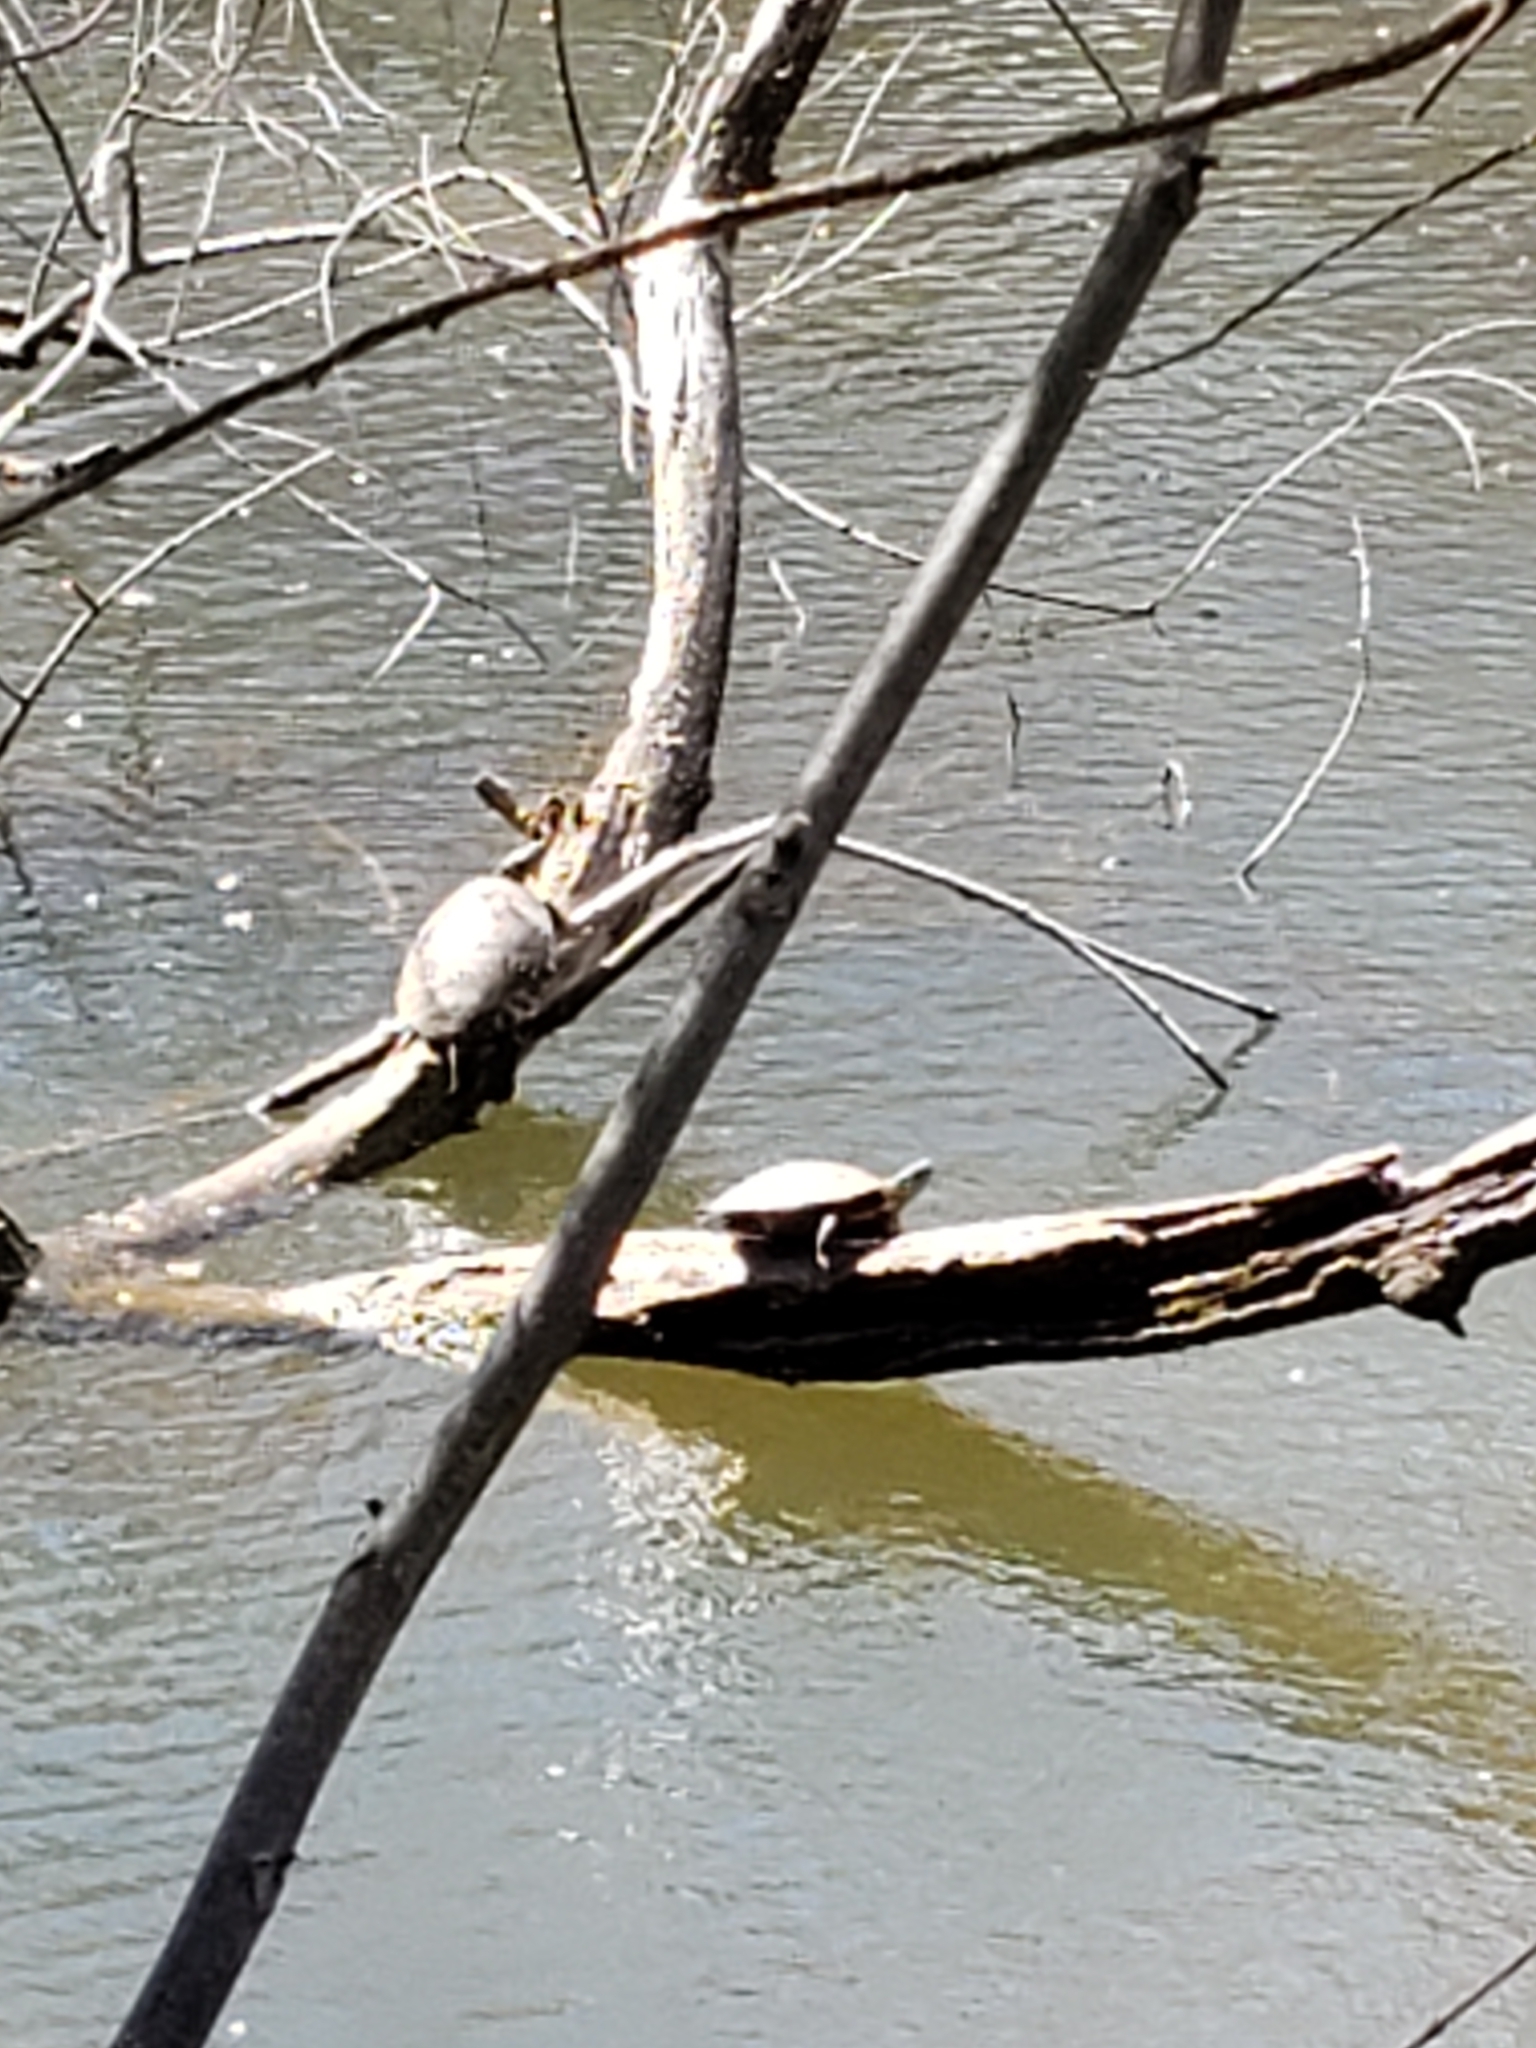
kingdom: Animalia
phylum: Chordata
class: Testudines
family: Emydidae
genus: Chrysemys
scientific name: Chrysemys picta
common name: Painted turtle
